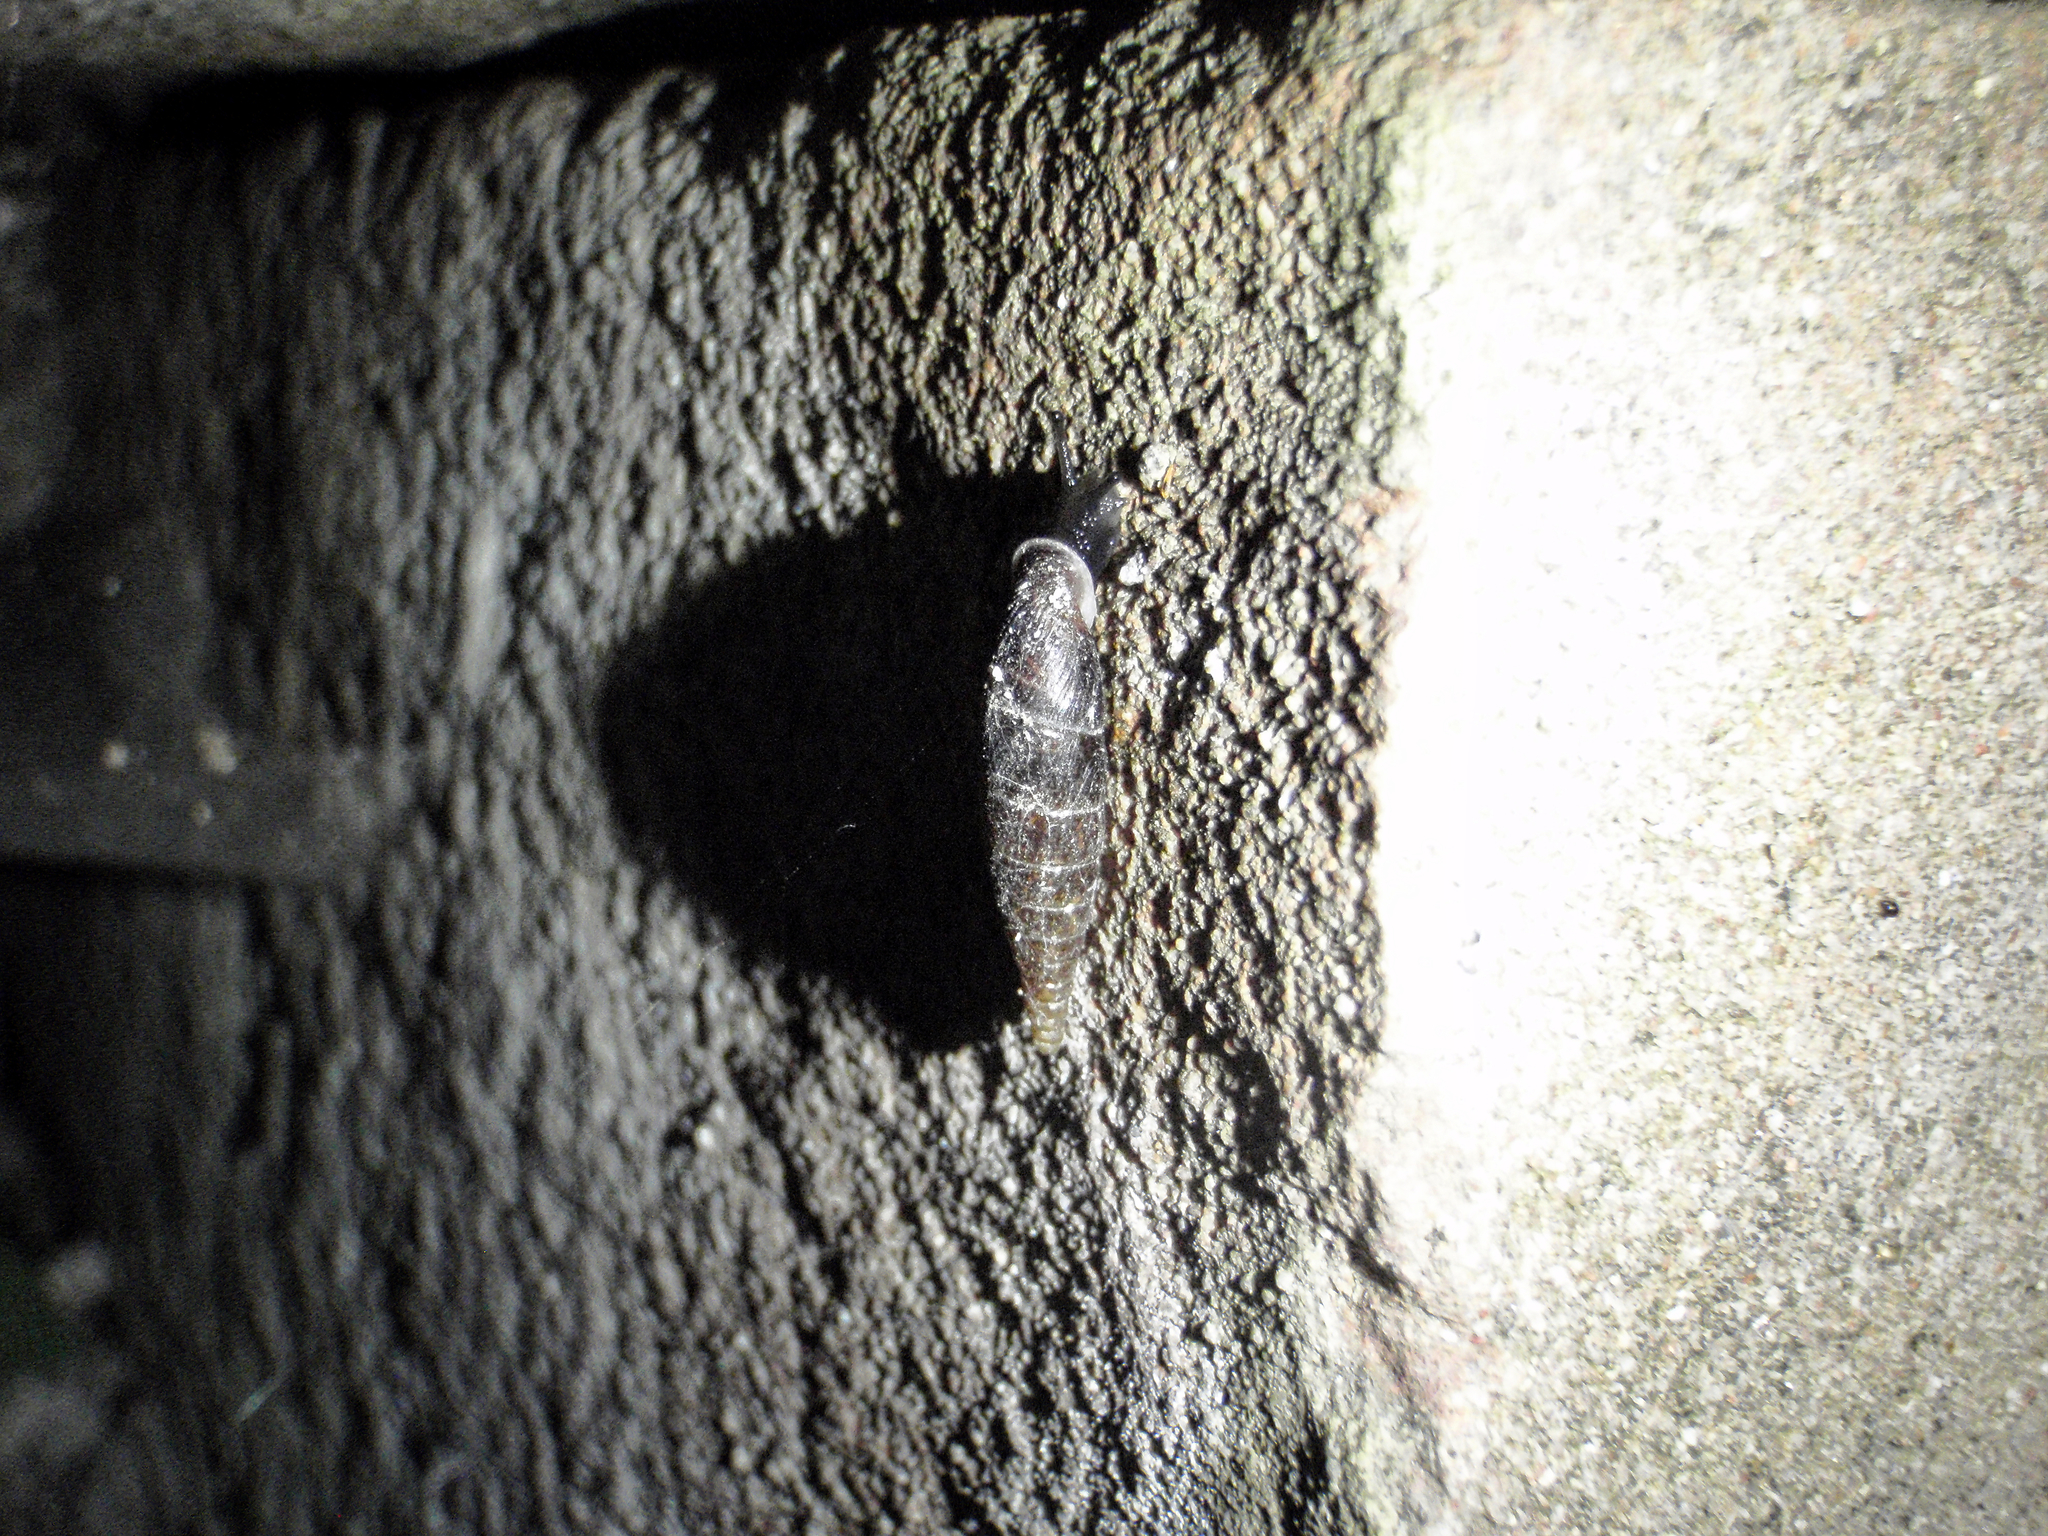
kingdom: Animalia
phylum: Mollusca
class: Gastropoda
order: Stylommatophora
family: Clausiliidae
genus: Cochlodina
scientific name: Cochlodina bidens
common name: Snail
